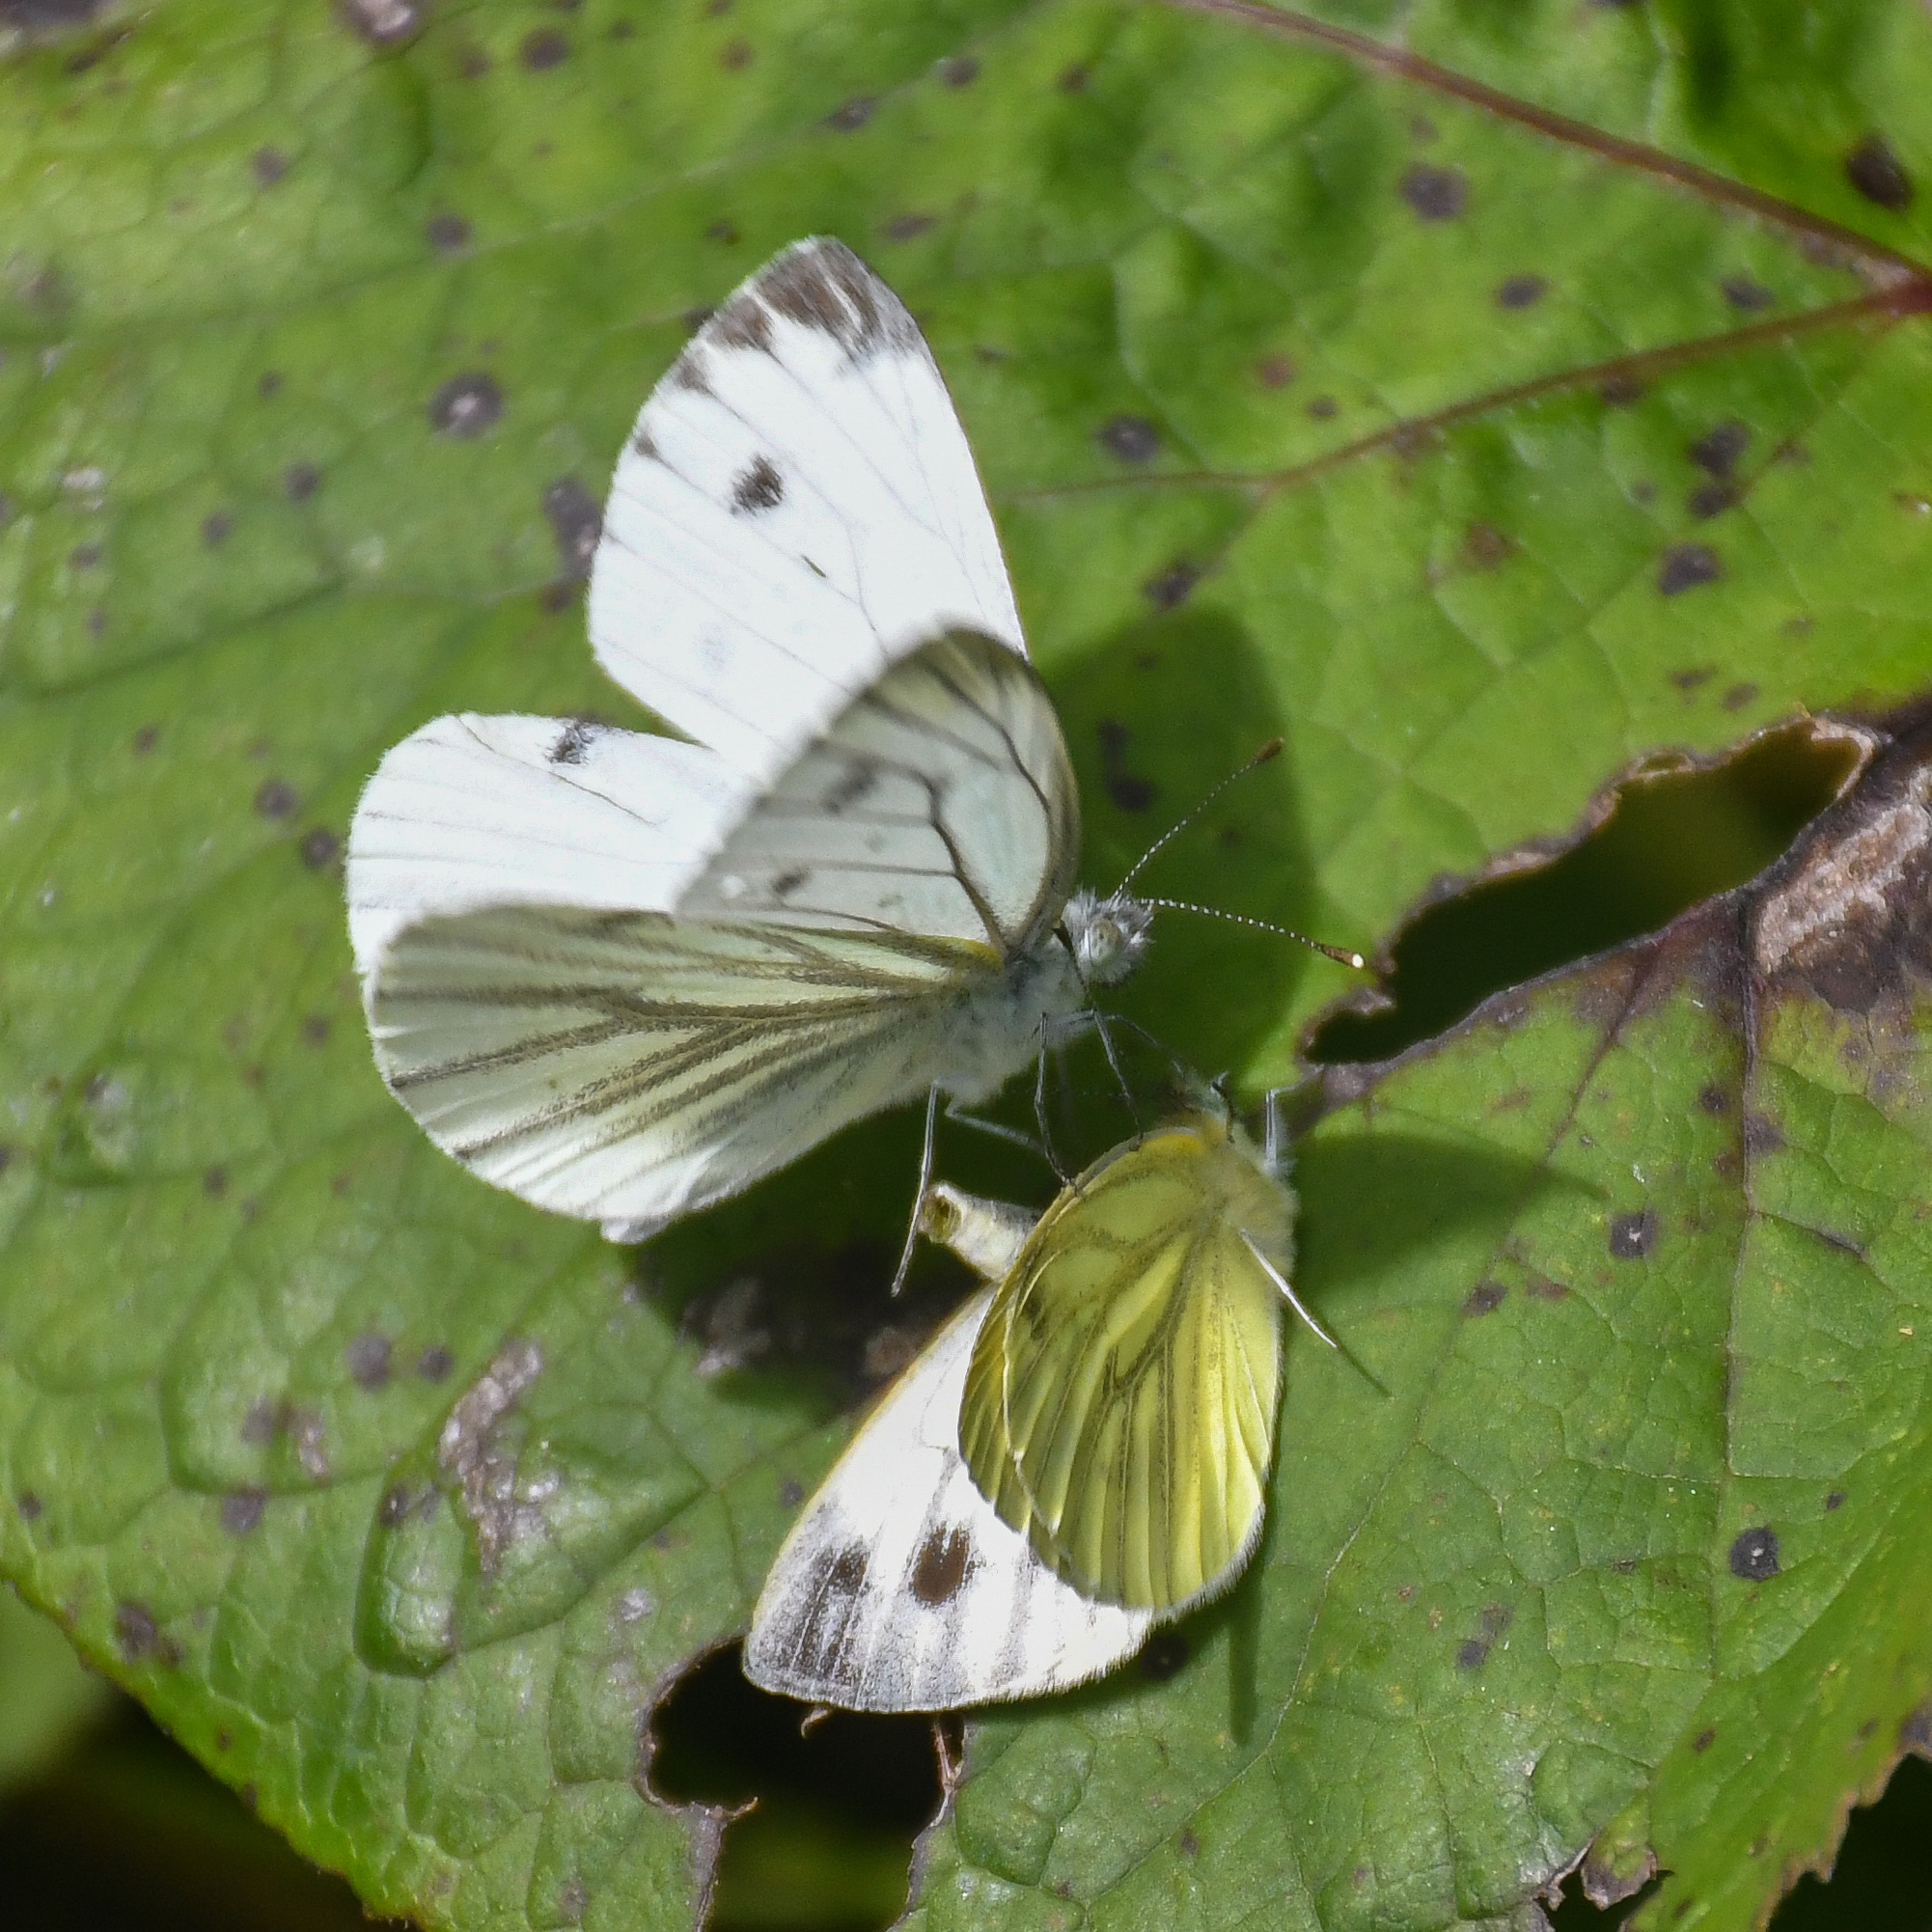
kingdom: Animalia
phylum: Arthropoda
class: Insecta
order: Lepidoptera
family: Pieridae
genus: Pieris
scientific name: Pieris napi
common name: Green-veined white
